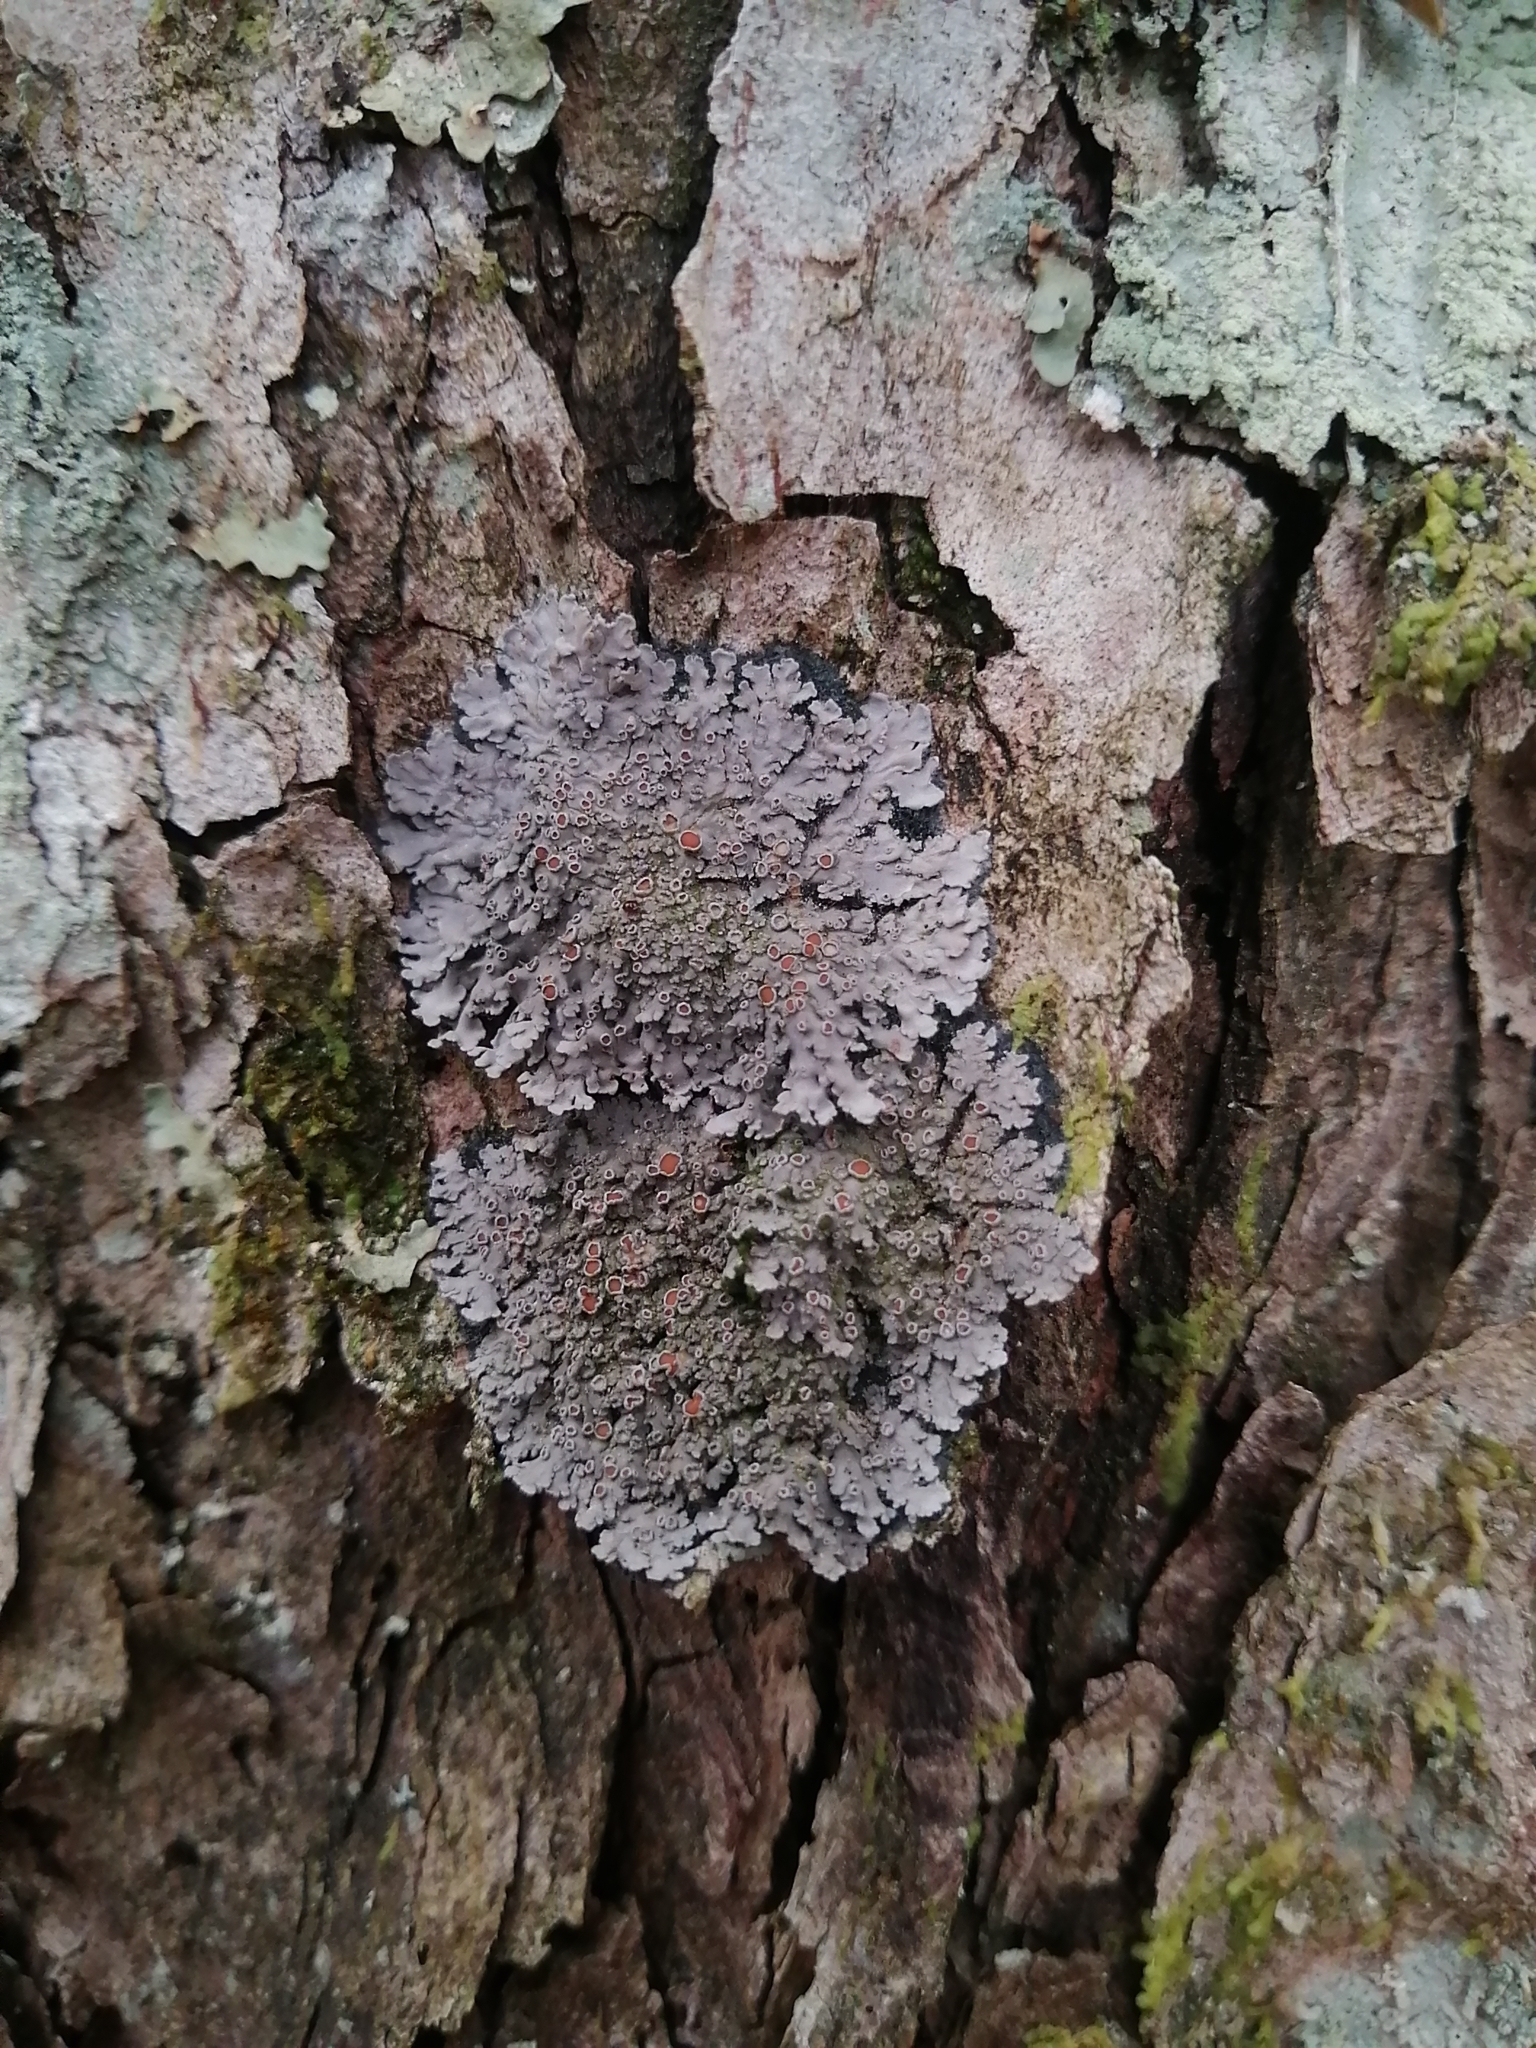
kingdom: Fungi
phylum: Ascomycota
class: Lecanoromycetes
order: Peltigerales
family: Pannariaceae
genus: Pannaria
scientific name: Pannaria rubiginosa
